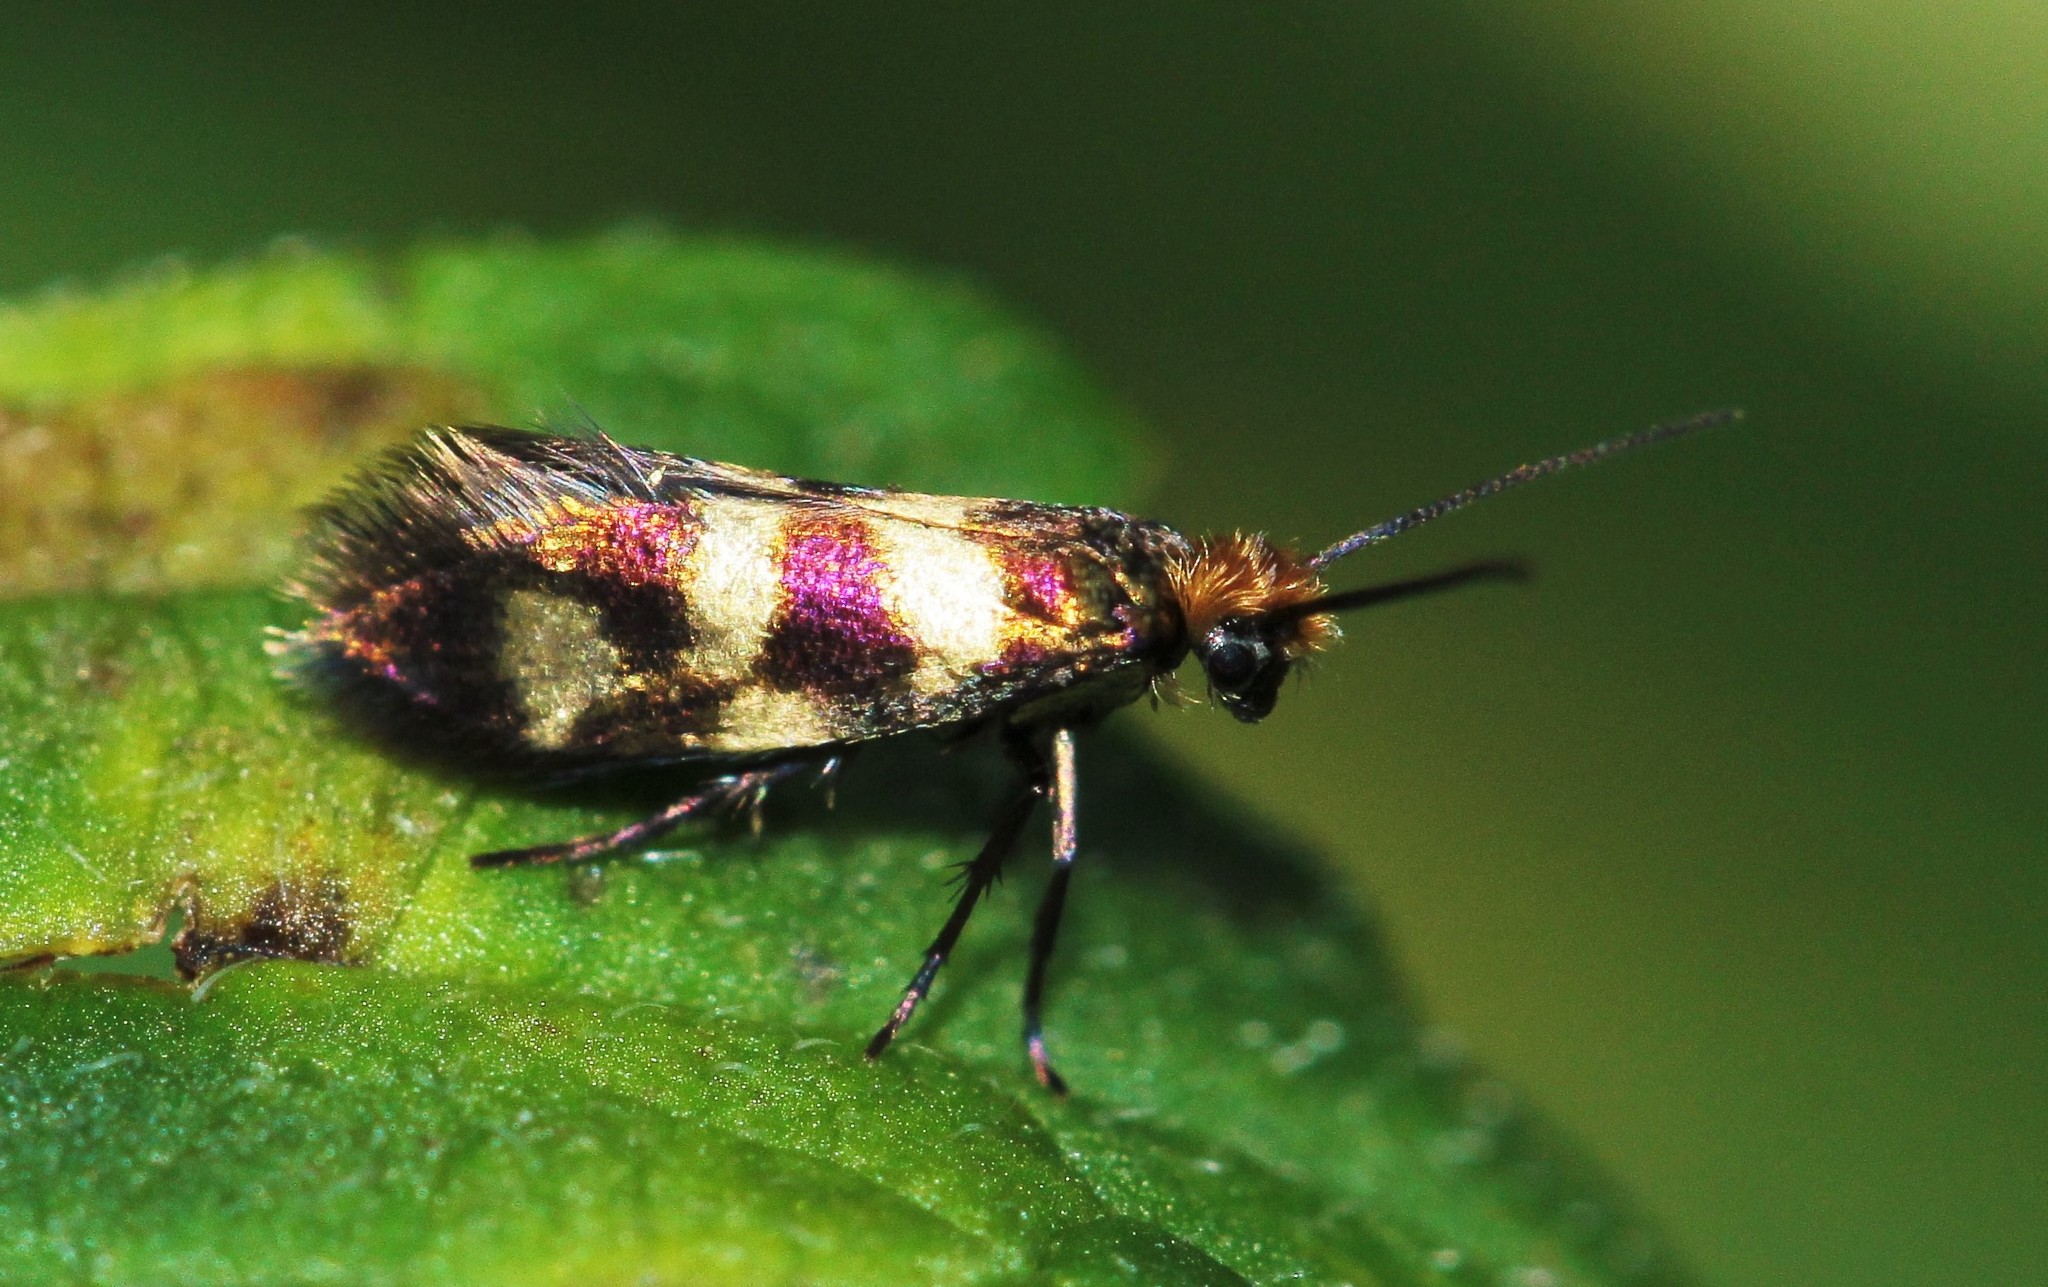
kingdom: Animalia
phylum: Arthropoda
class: Insecta
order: Lepidoptera
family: Micropterigidae
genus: Micropterix
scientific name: Micropterix aureatella
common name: Yellow-barred gold
